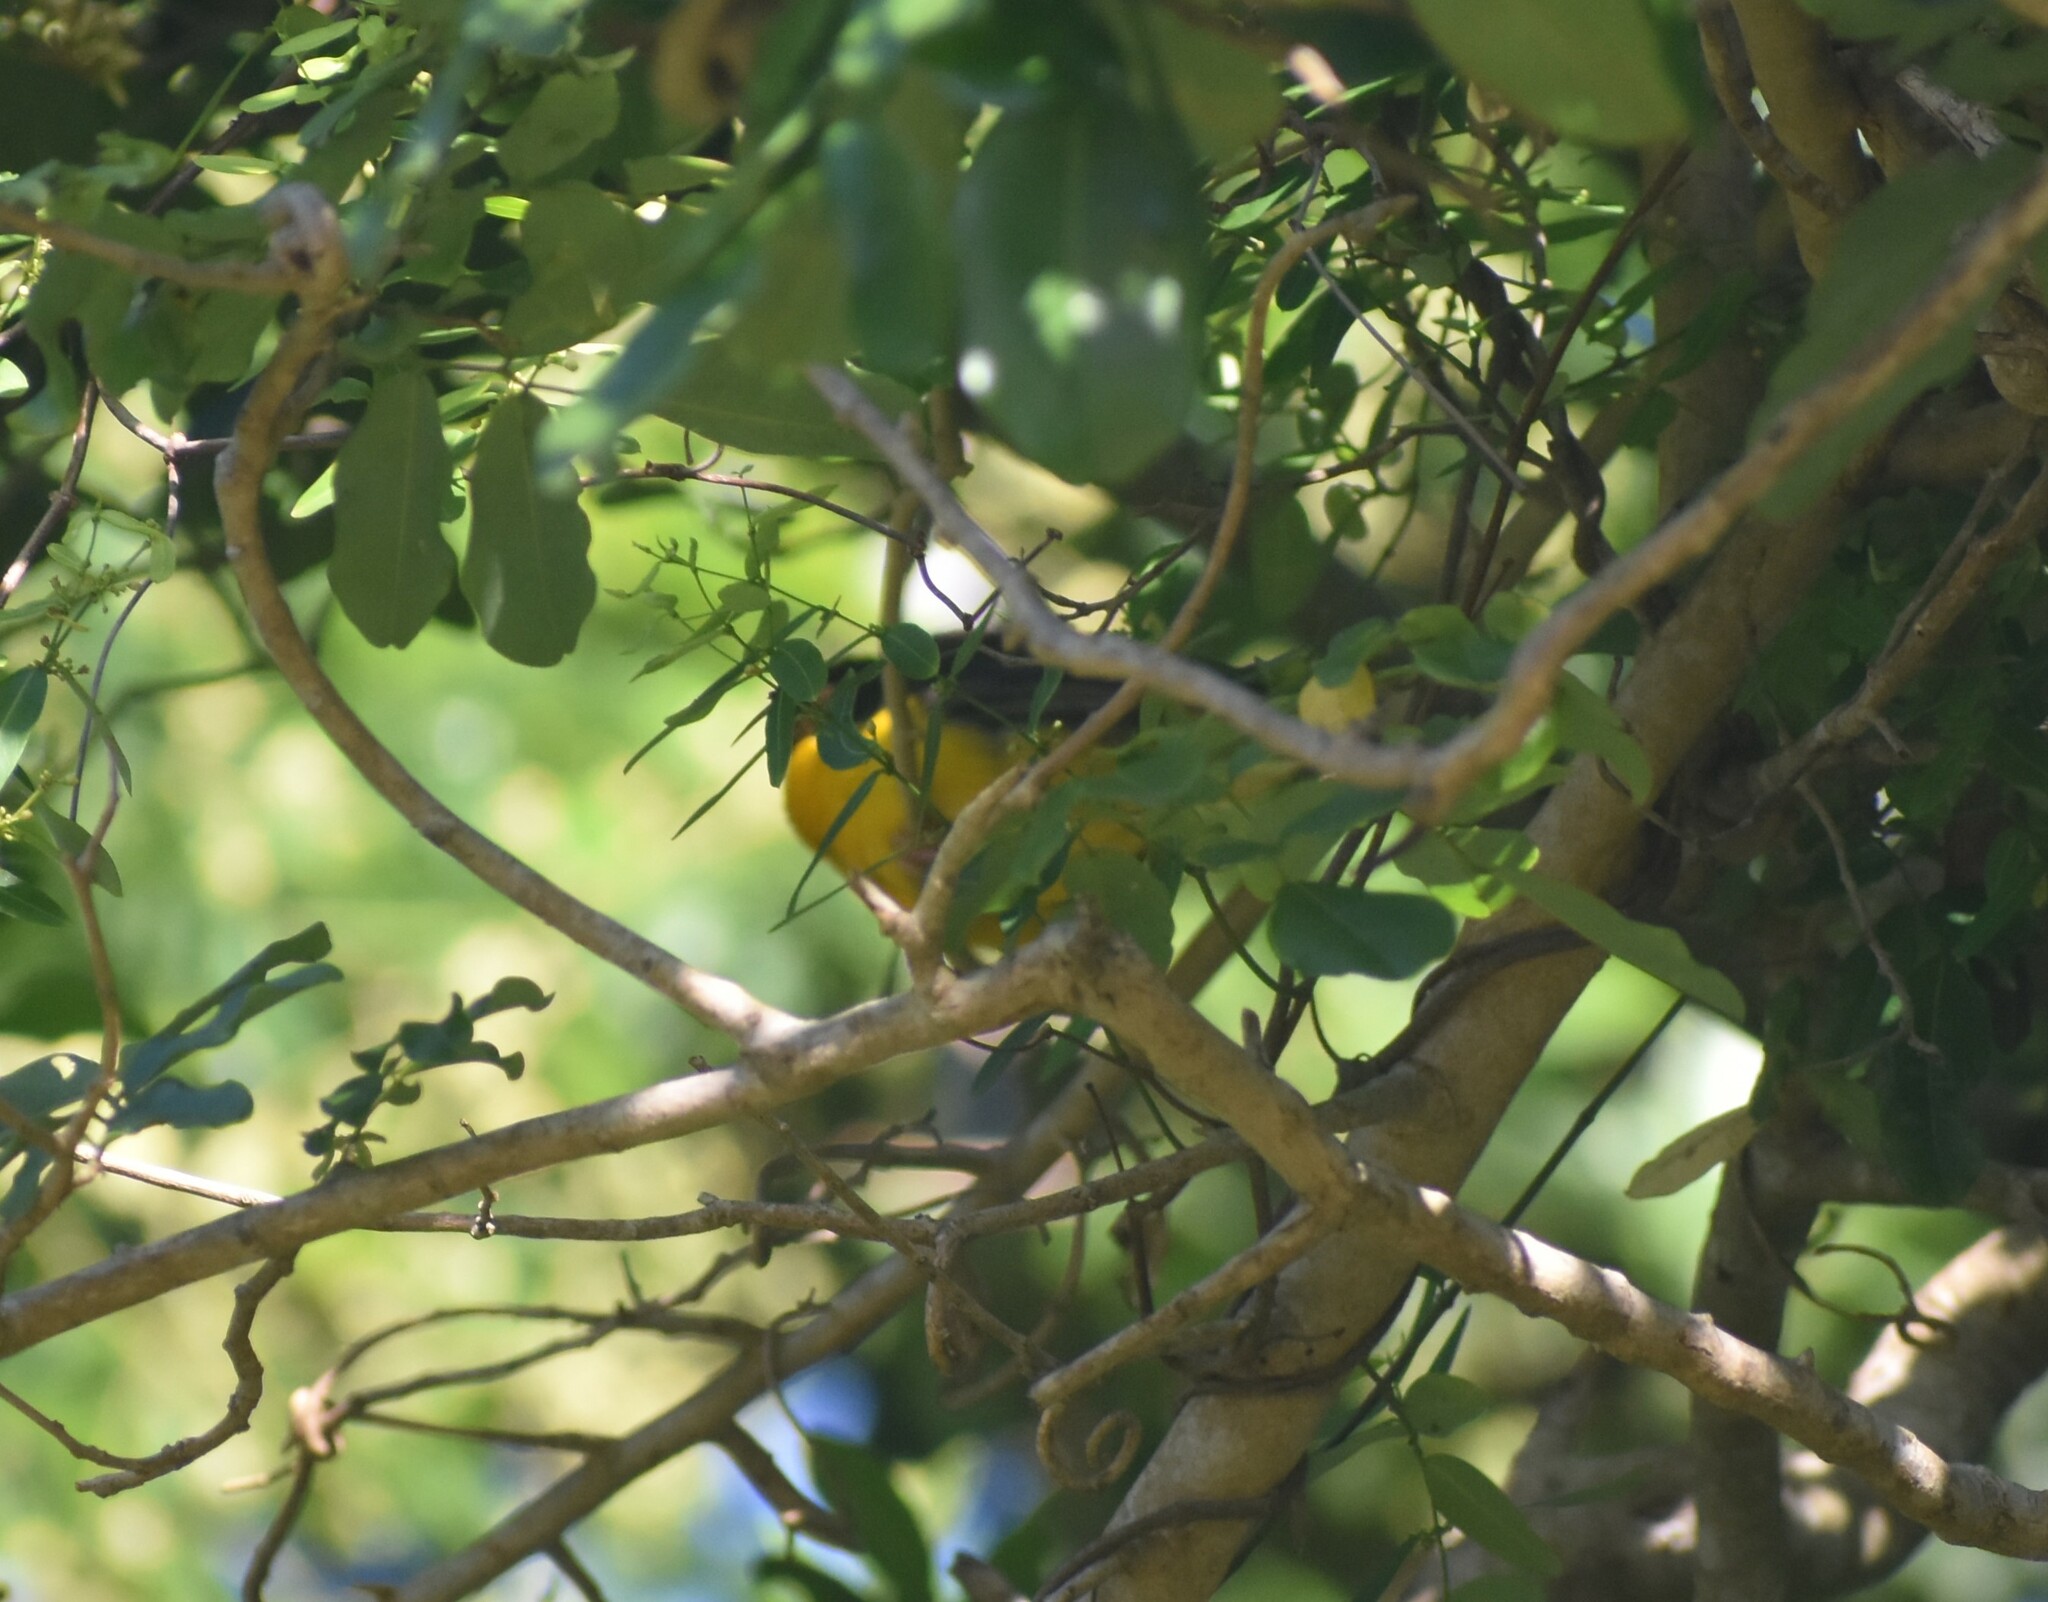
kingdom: Animalia
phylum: Chordata
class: Aves
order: Passeriformes
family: Ploceidae
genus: Ploceus
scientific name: Ploceus bicolor
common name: Dark-backed weaver
